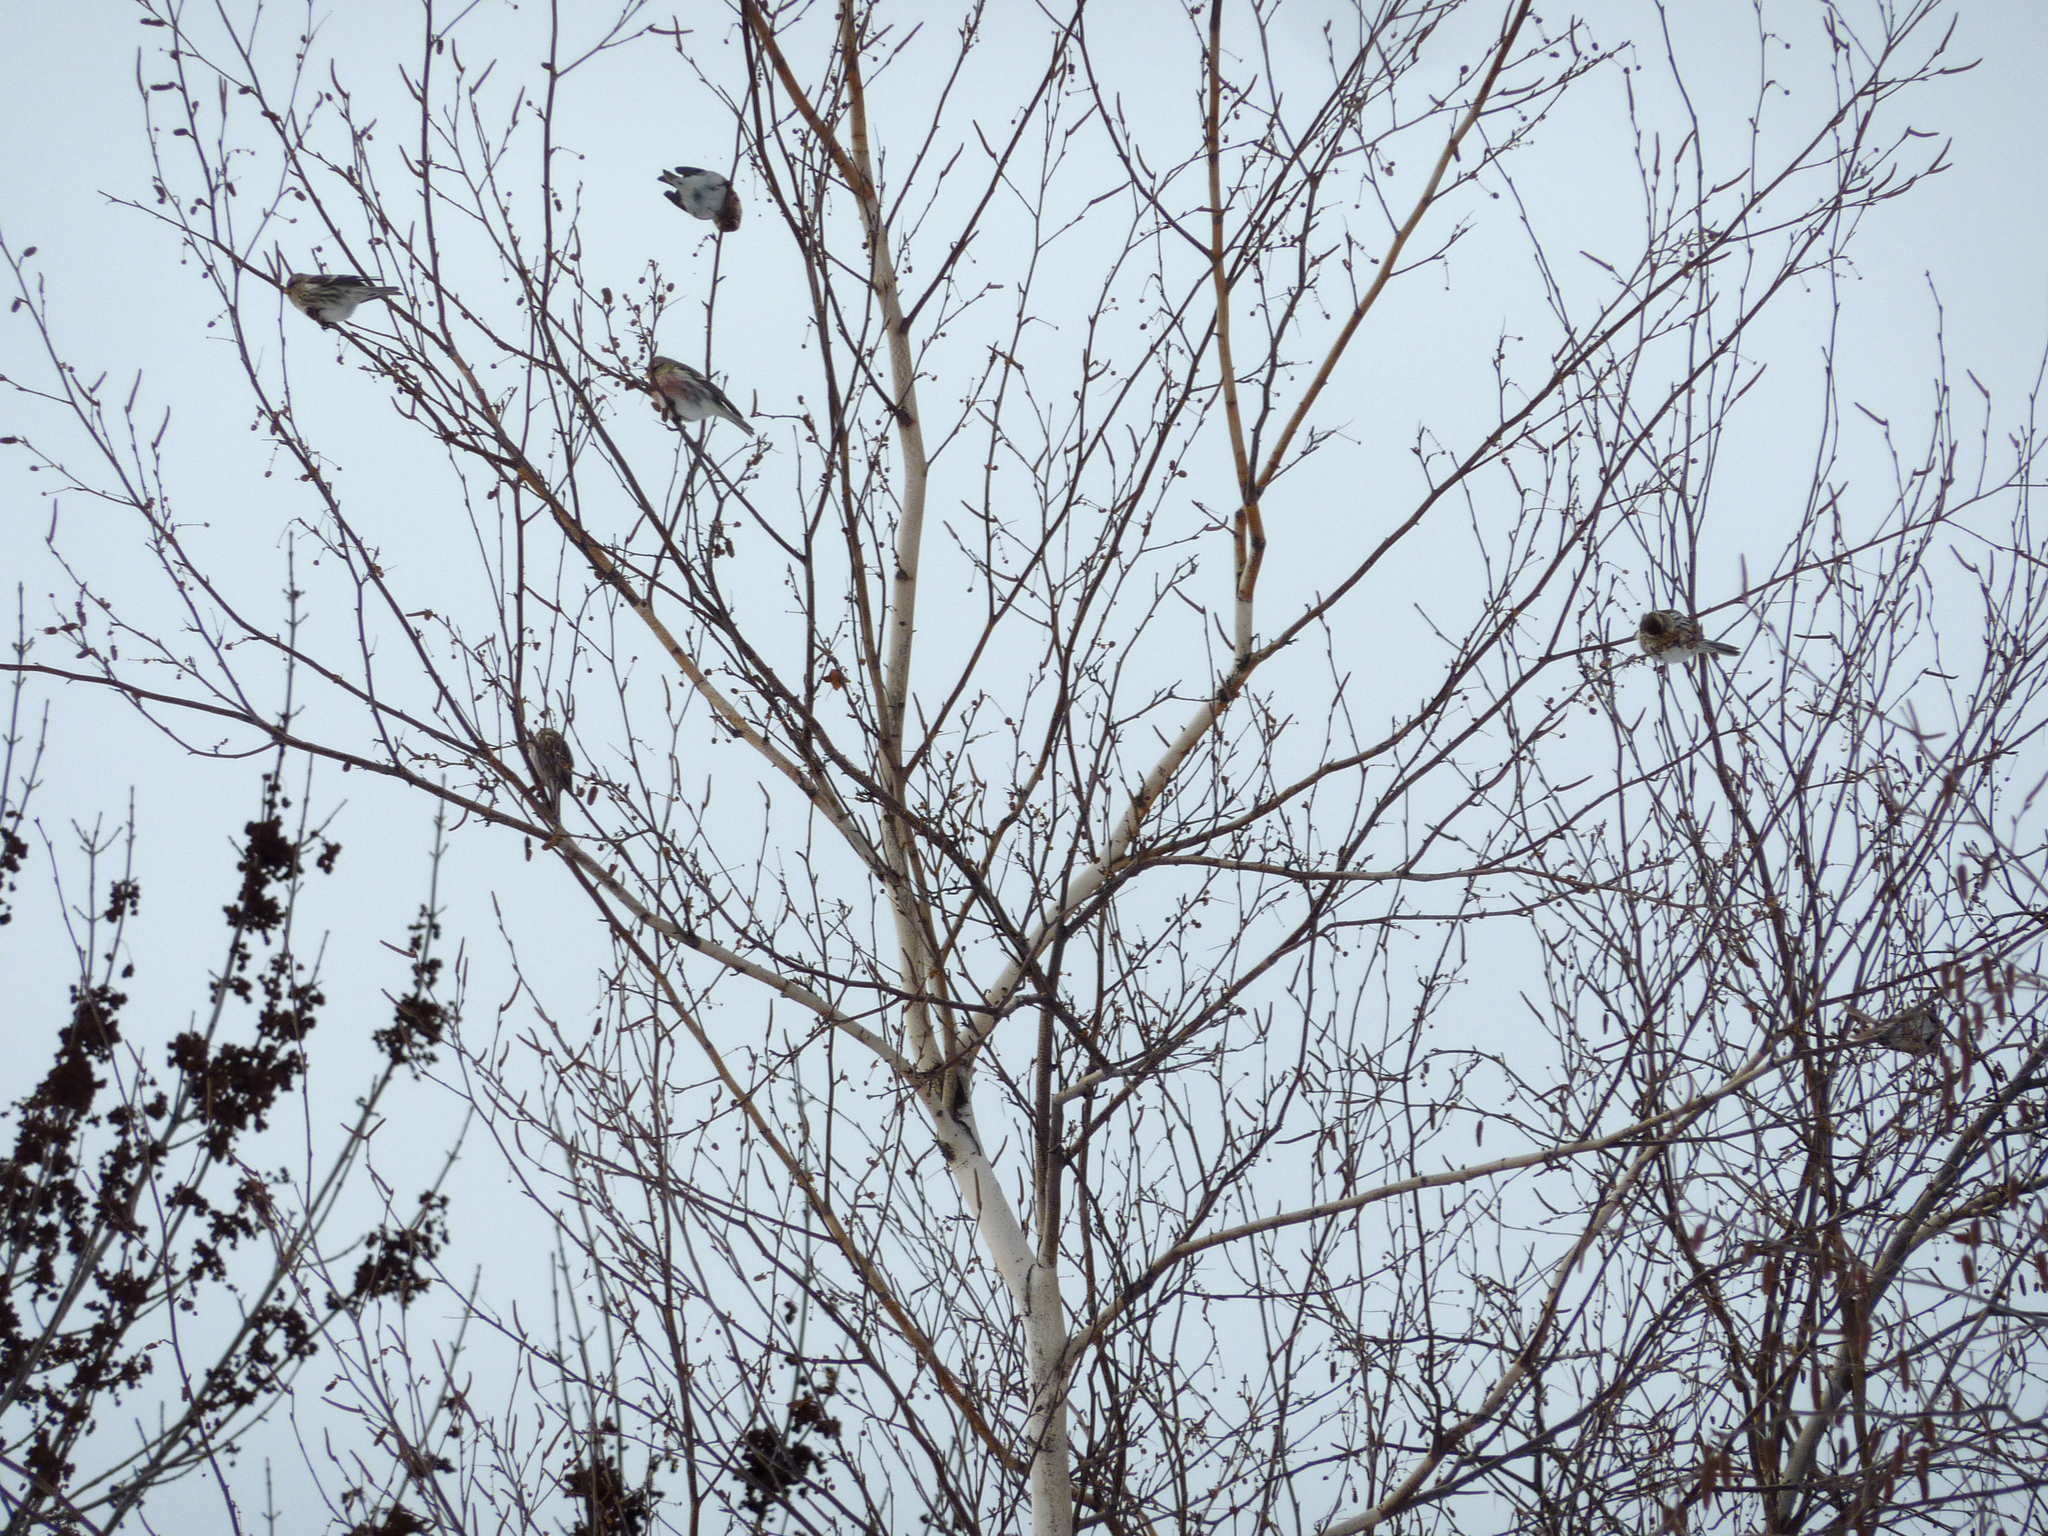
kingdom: Animalia
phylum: Chordata
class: Aves
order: Passeriformes
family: Fringillidae
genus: Acanthis
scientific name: Acanthis flammea
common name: Common redpoll
